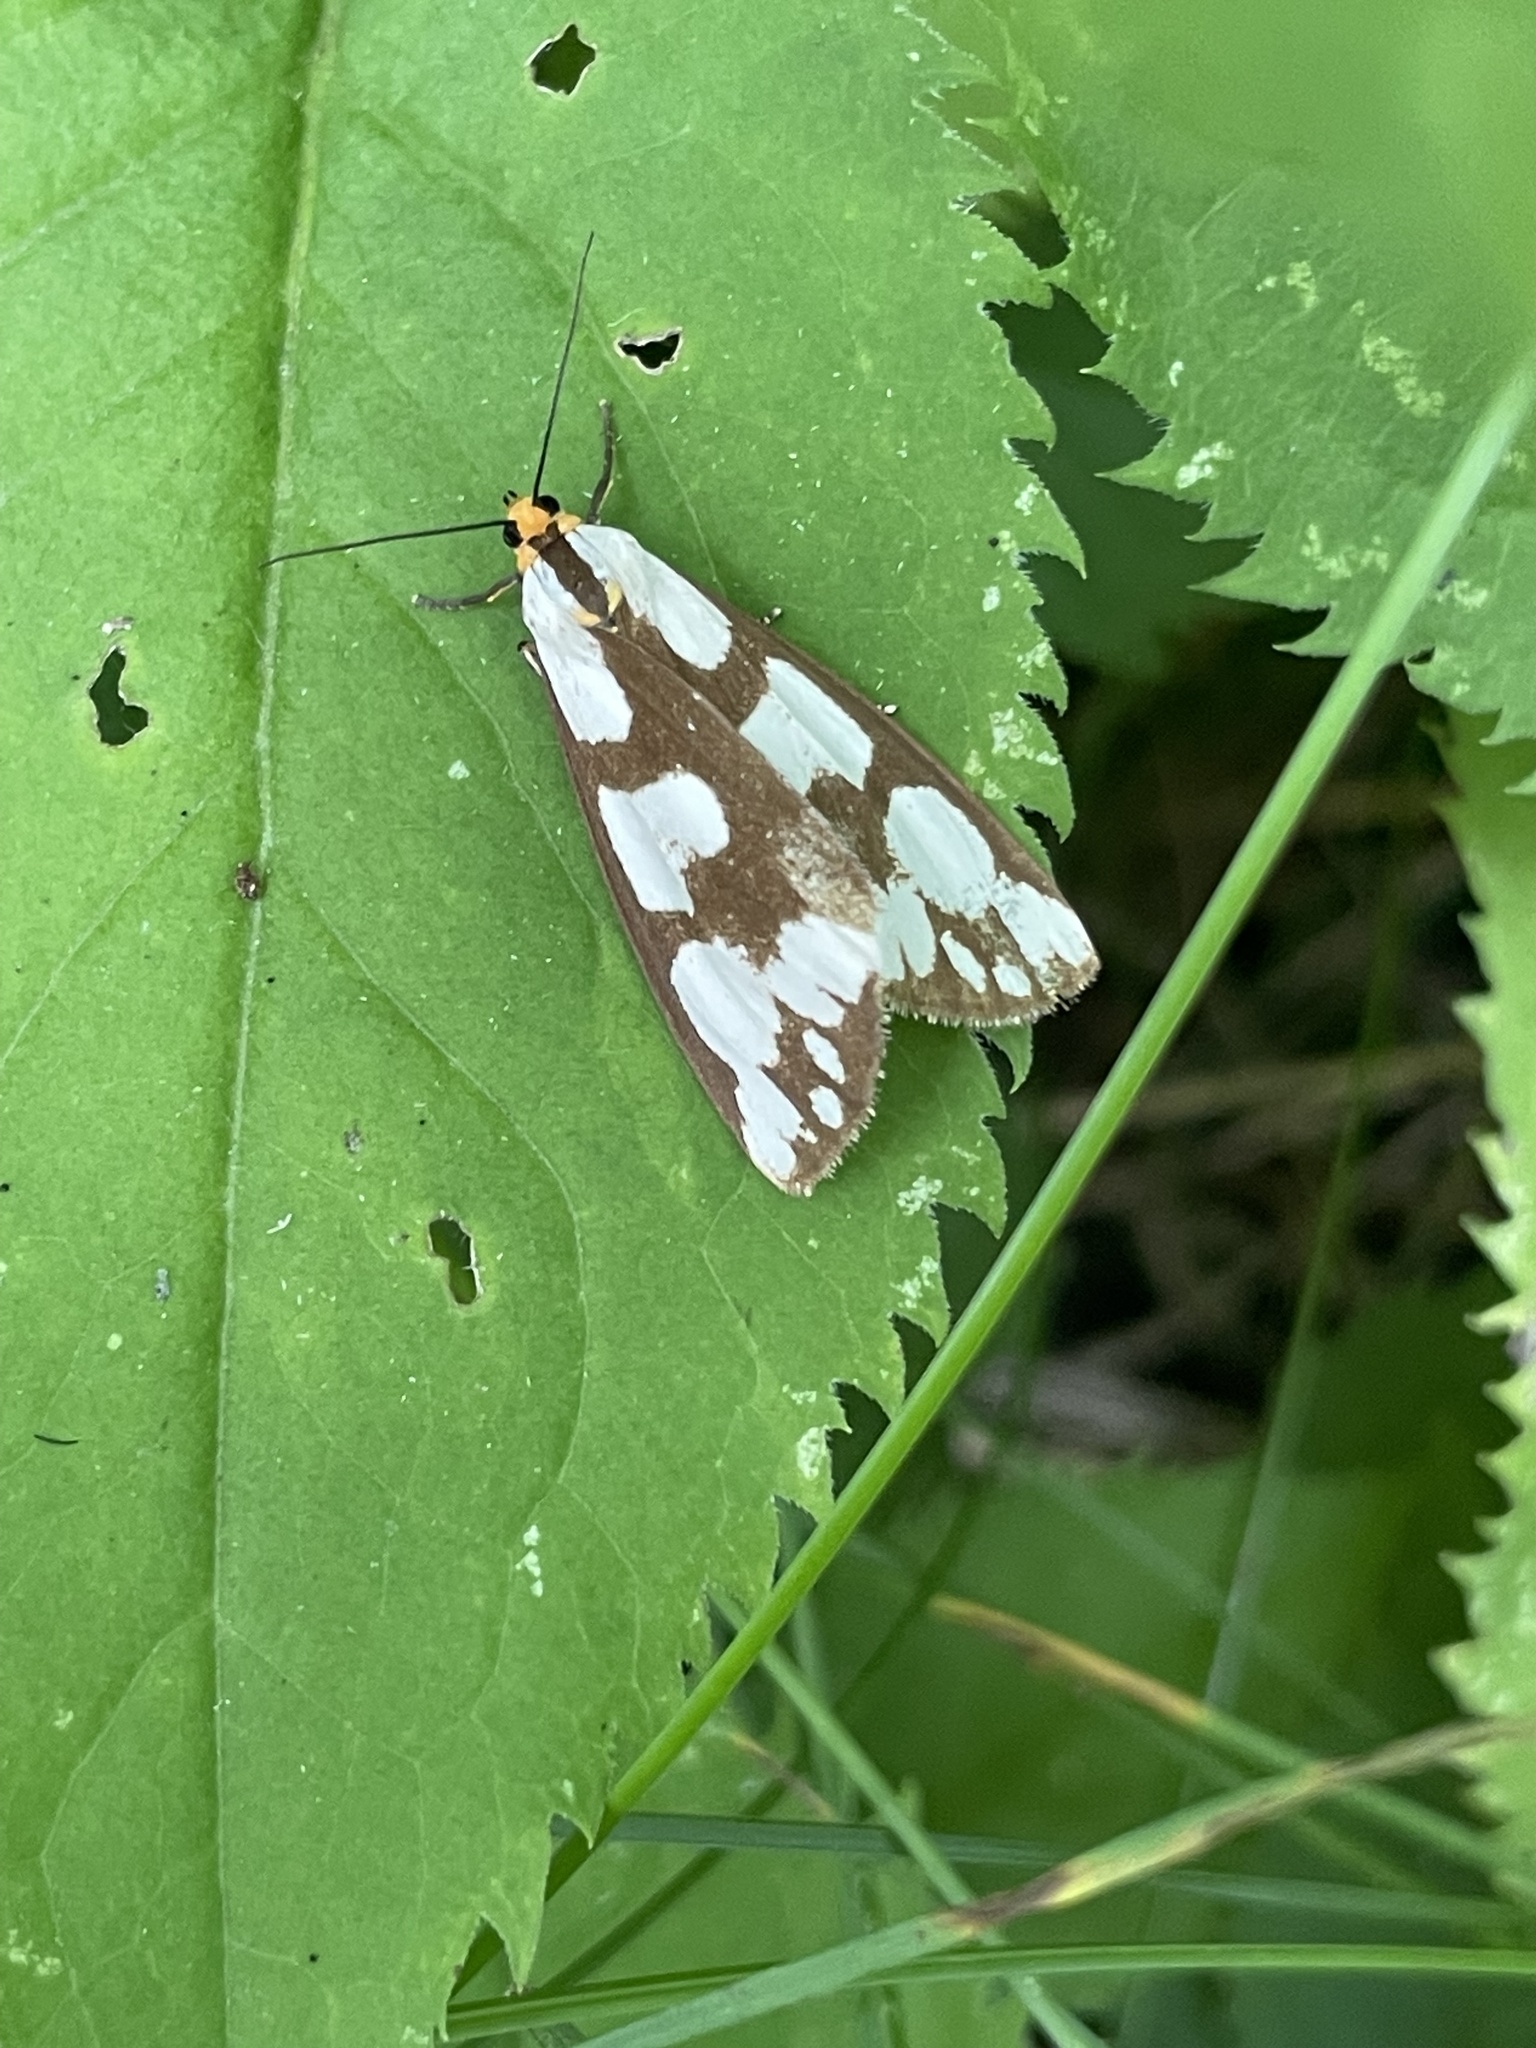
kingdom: Animalia
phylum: Arthropoda
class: Insecta
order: Lepidoptera
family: Erebidae
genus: Haploa
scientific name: Haploa confusa
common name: Confused haploa moth
